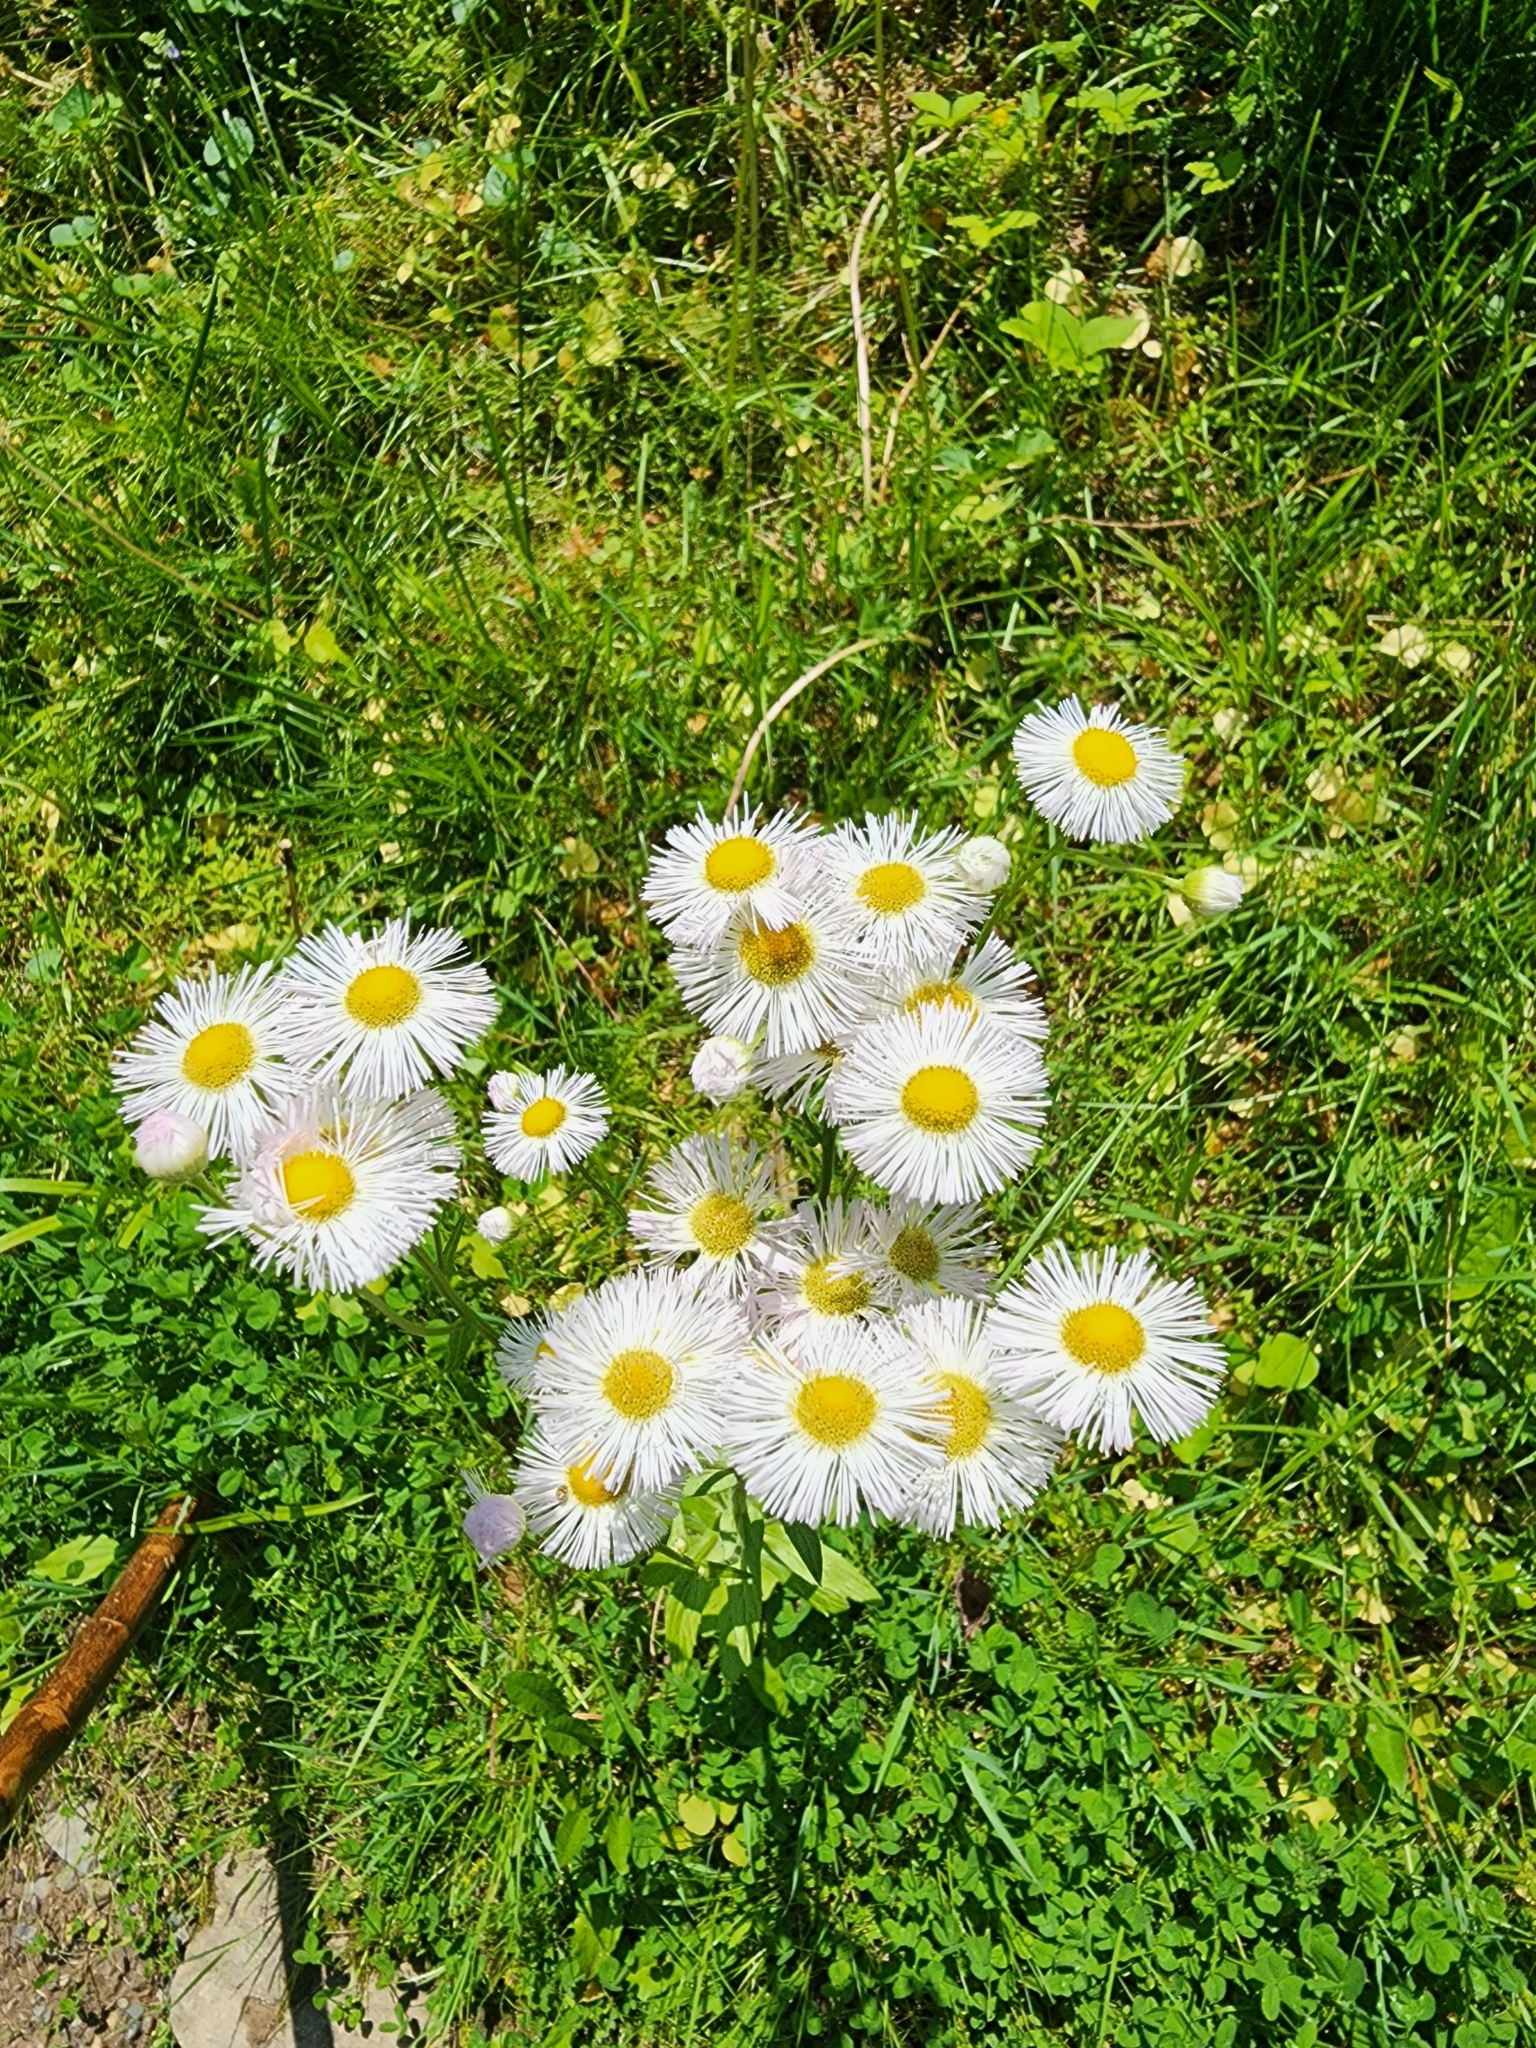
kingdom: Plantae
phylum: Tracheophyta
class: Magnoliopsida
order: Asterales
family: Asteraceae
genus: Erigeron
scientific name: Erigeron philadelphicus
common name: Robin's-plantain
